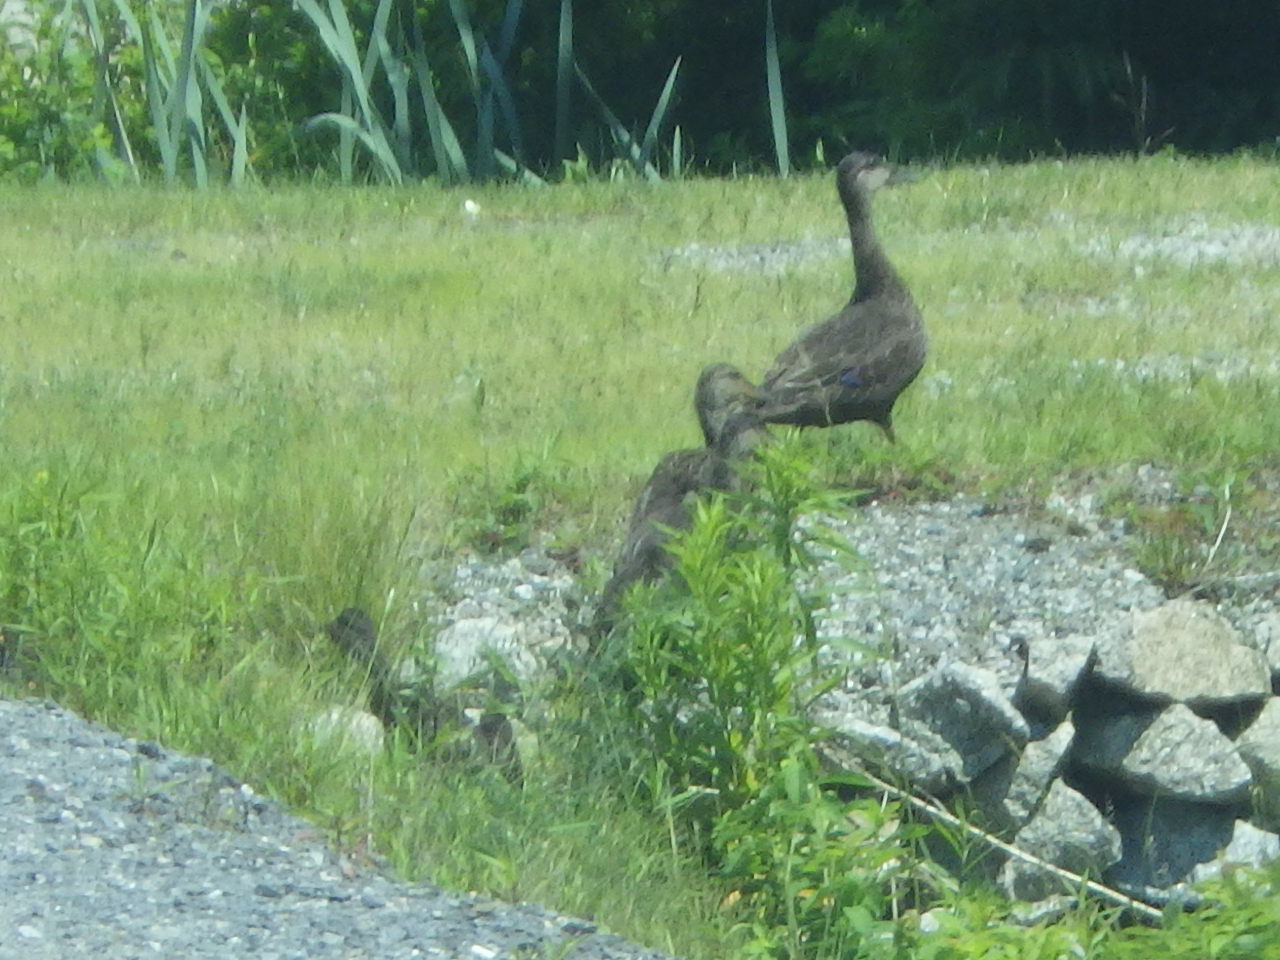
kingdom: Animalia
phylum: Chordata
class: Aves
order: Anseriformes
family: Anatidae
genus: Anas
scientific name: Anas rubripes
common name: American black duck
